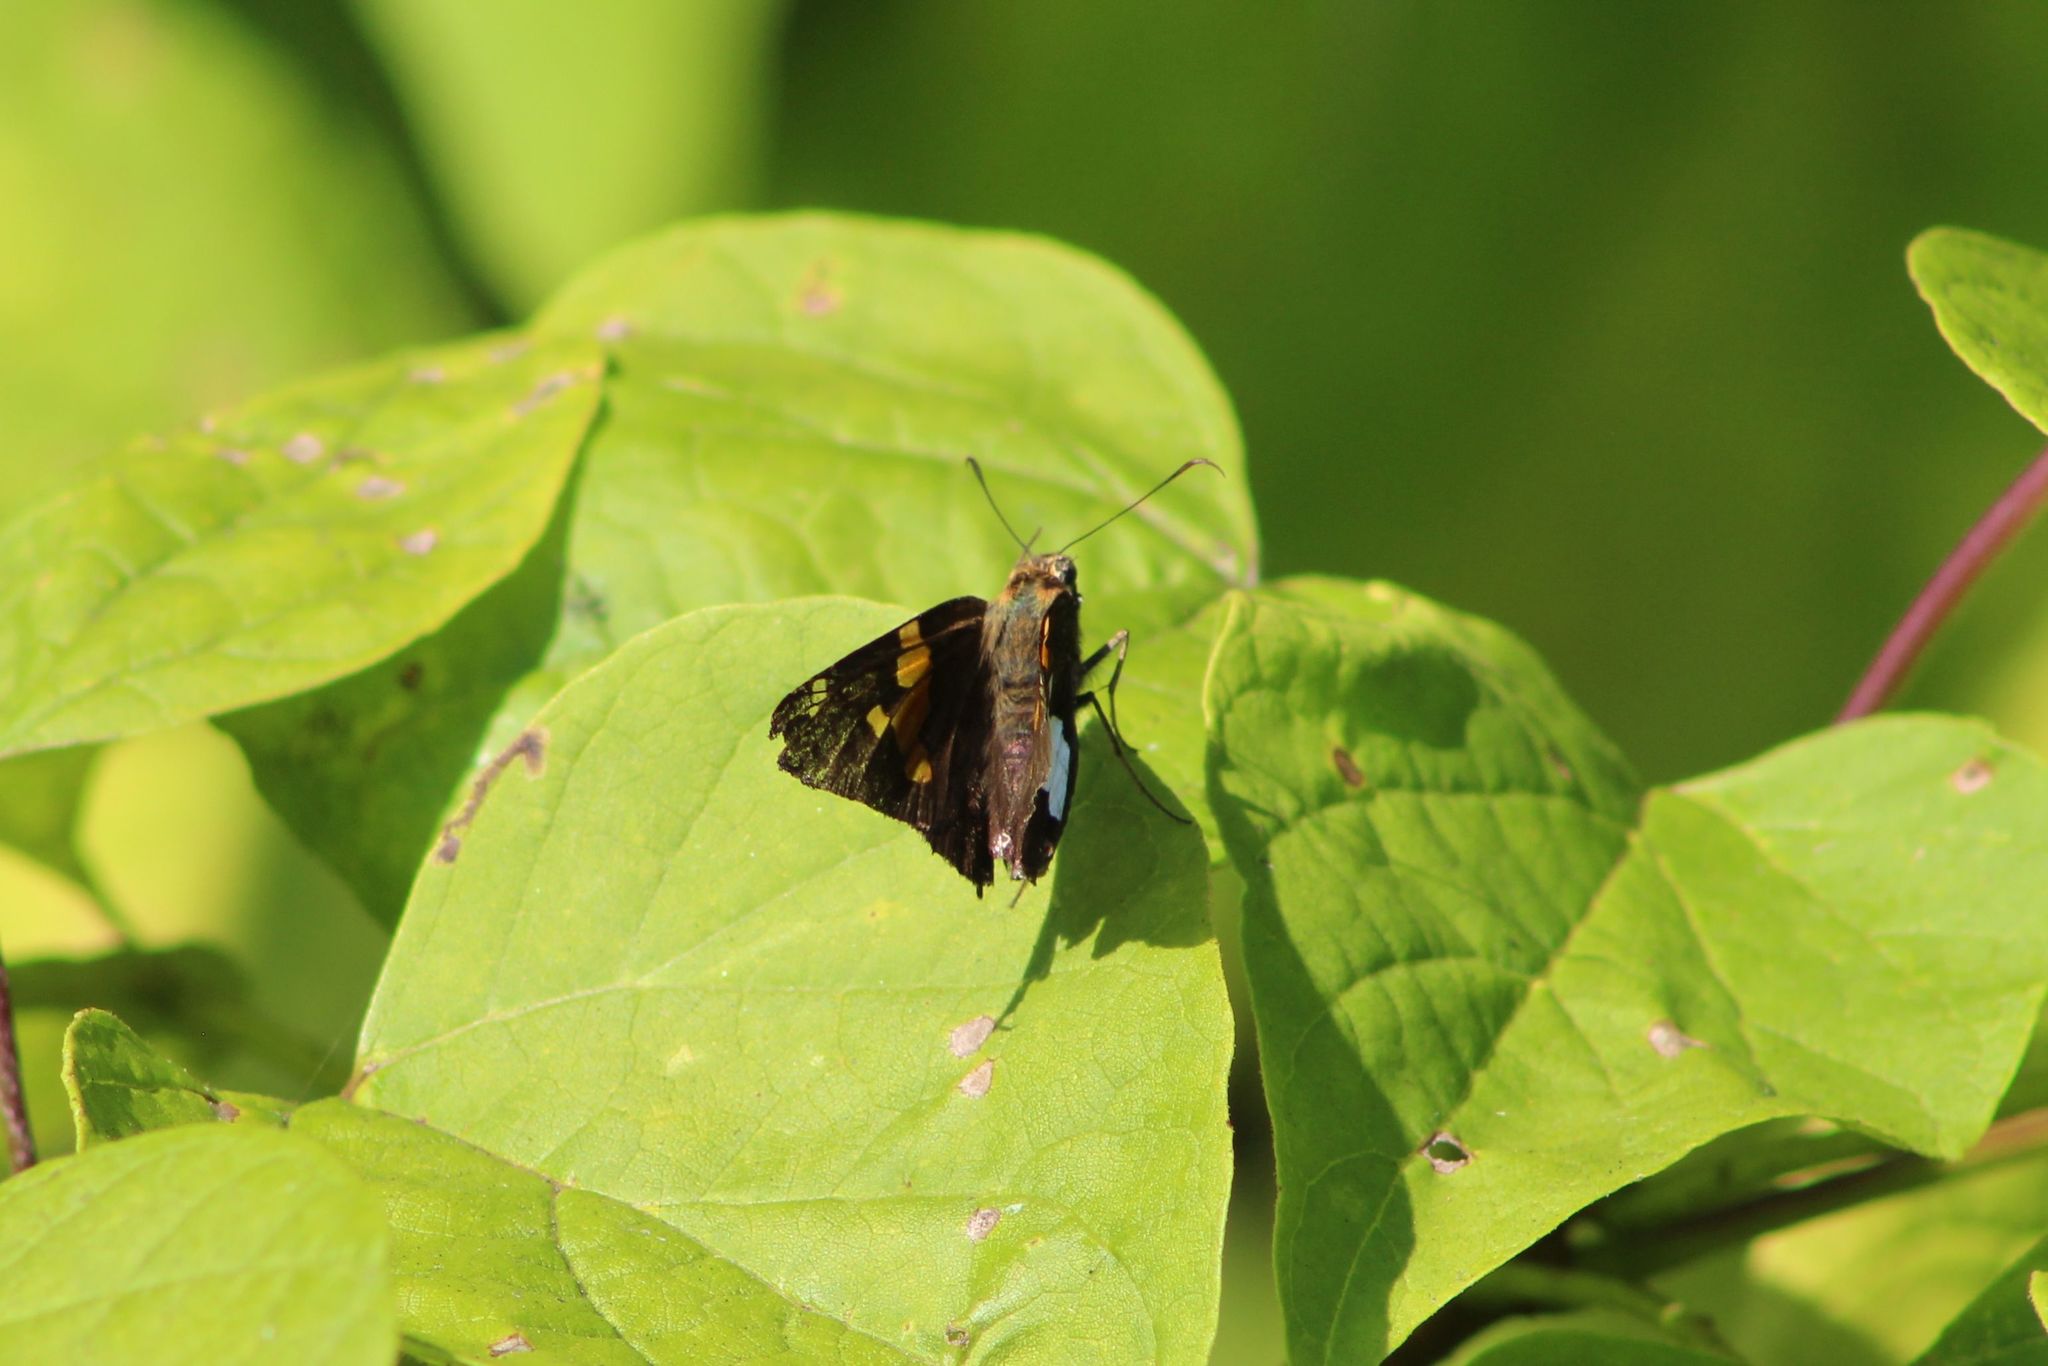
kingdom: Animalia
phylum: Arthropoda
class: Insecta
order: Lepidoptera
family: Hesperiidae
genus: Epargyreus
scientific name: Epargyreus clarus
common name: Silver-spotted skipper
